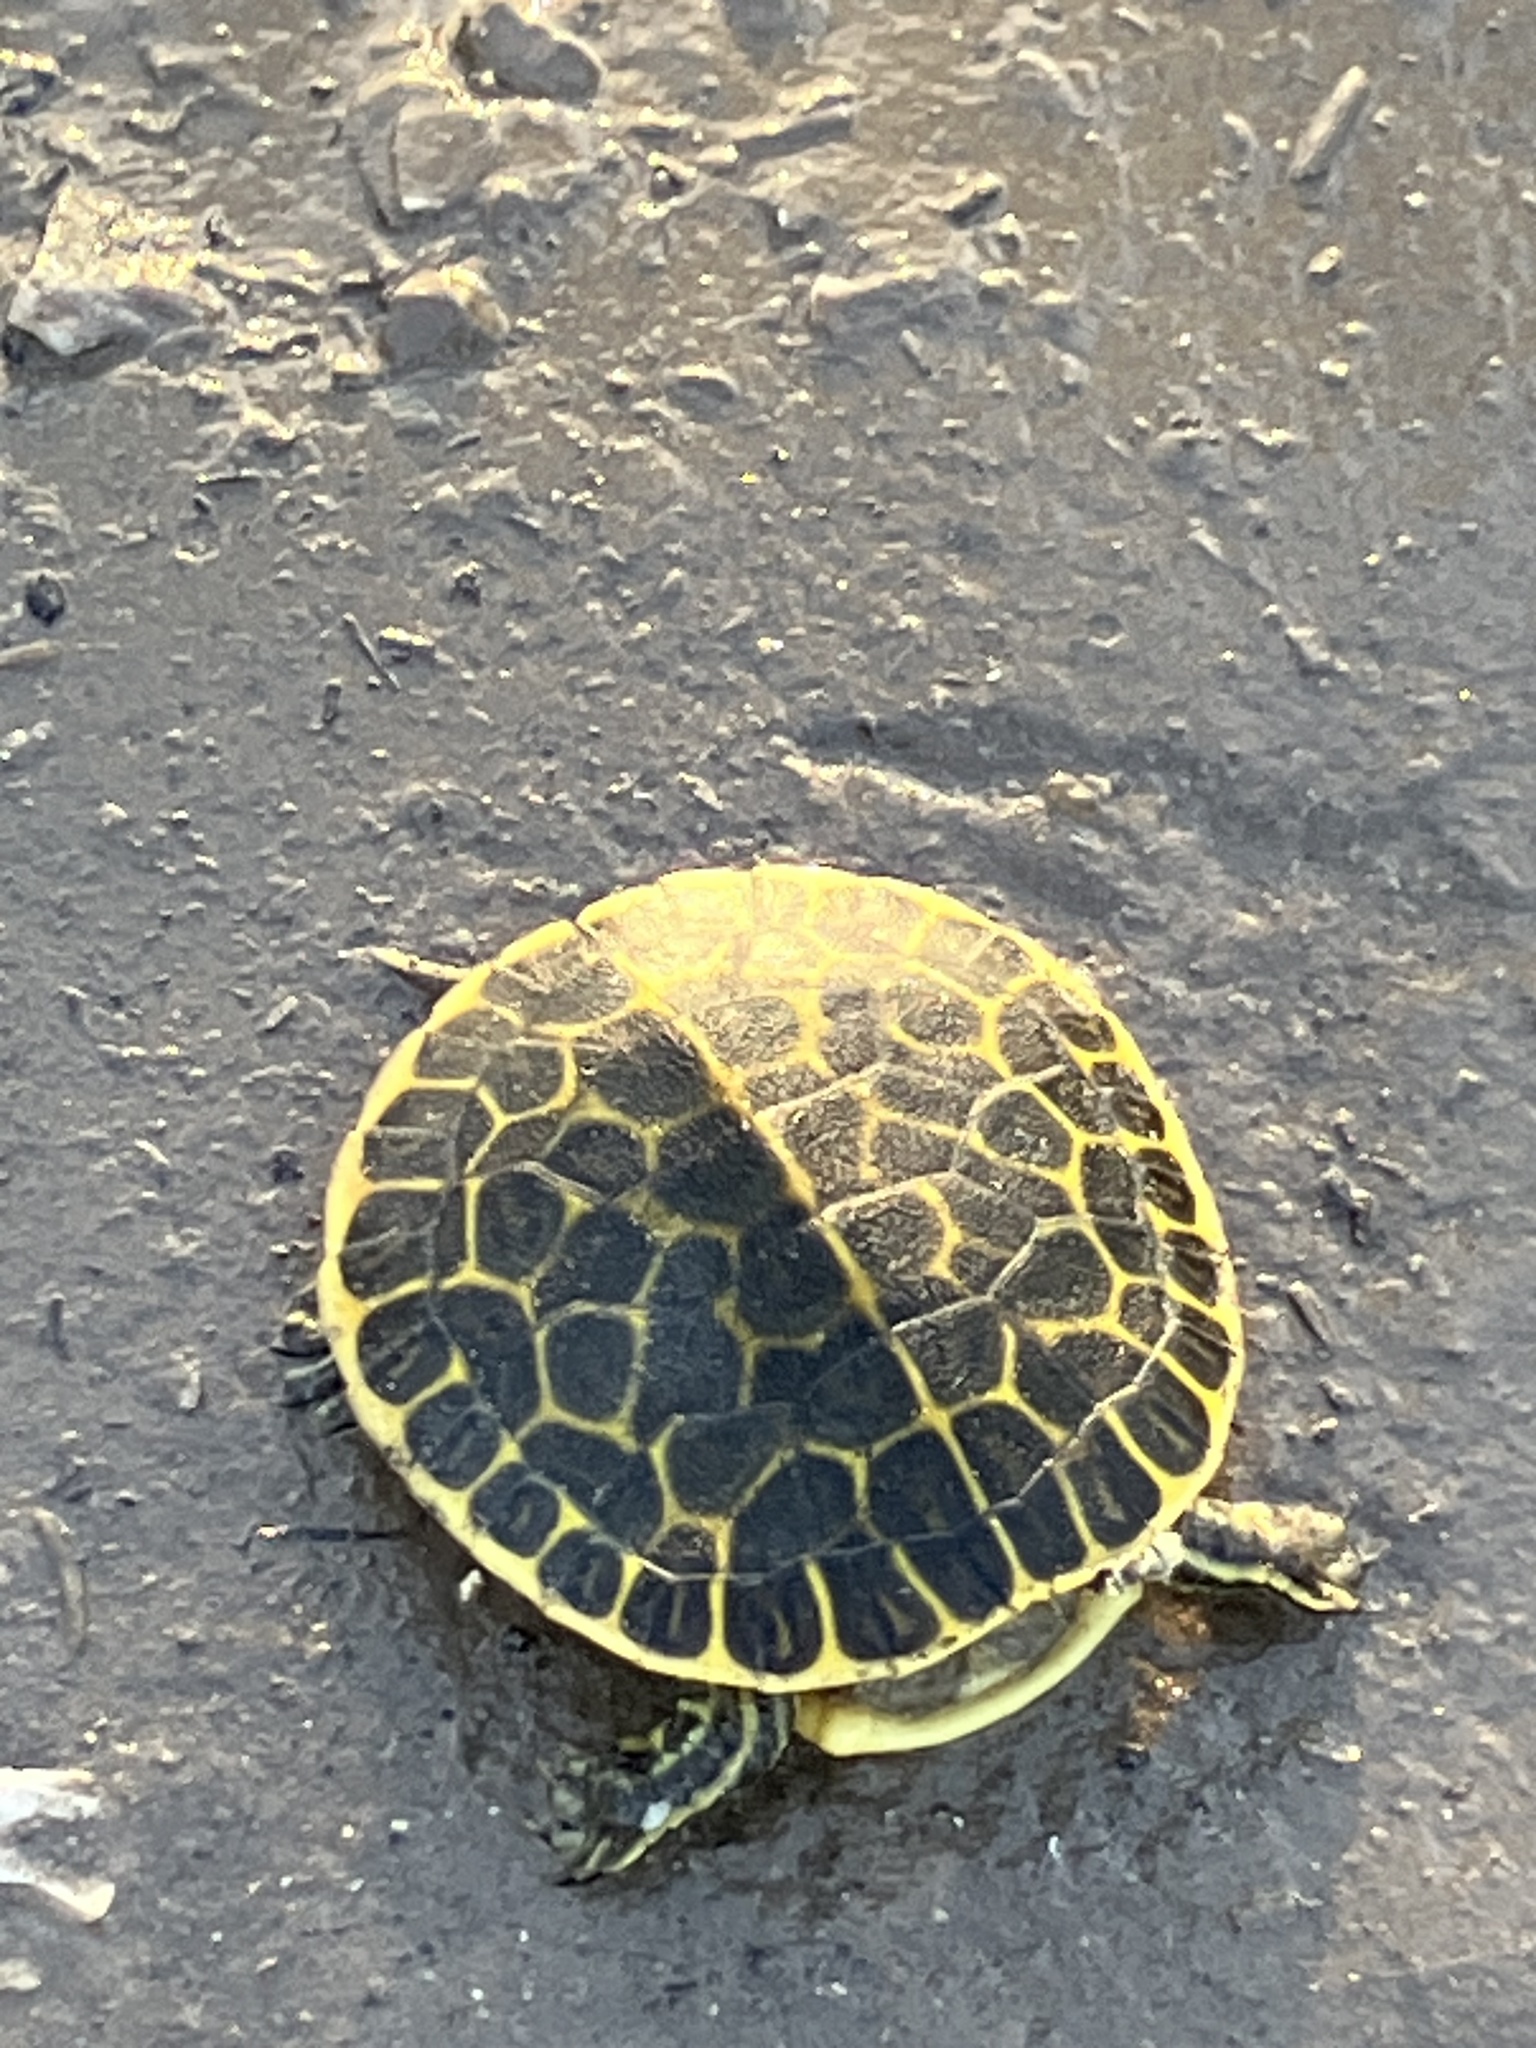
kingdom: Animalia
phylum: Chordata
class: Testudines
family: Emydidae
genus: Deirochelys
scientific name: Deirochelys reticularia
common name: Chicken turtle
